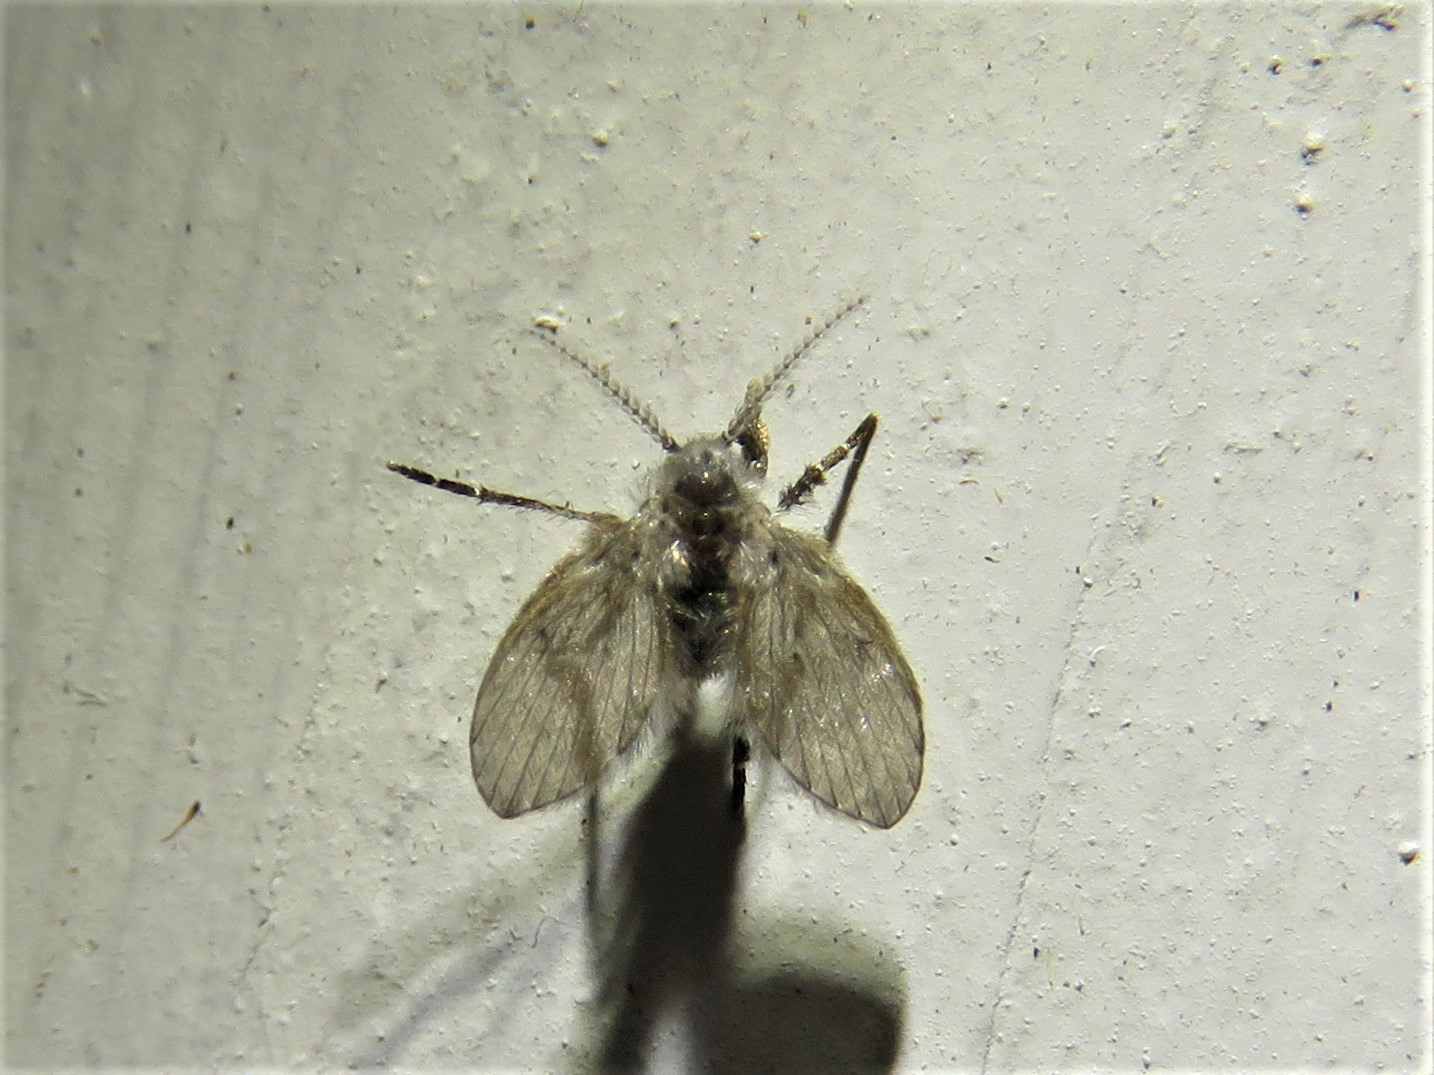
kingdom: Animalia
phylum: Arthropoda
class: Insecta
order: Diptera
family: Psychodidae
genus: Clogmia
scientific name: Clogmia albipunctatus
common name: White-spotted moth fly
